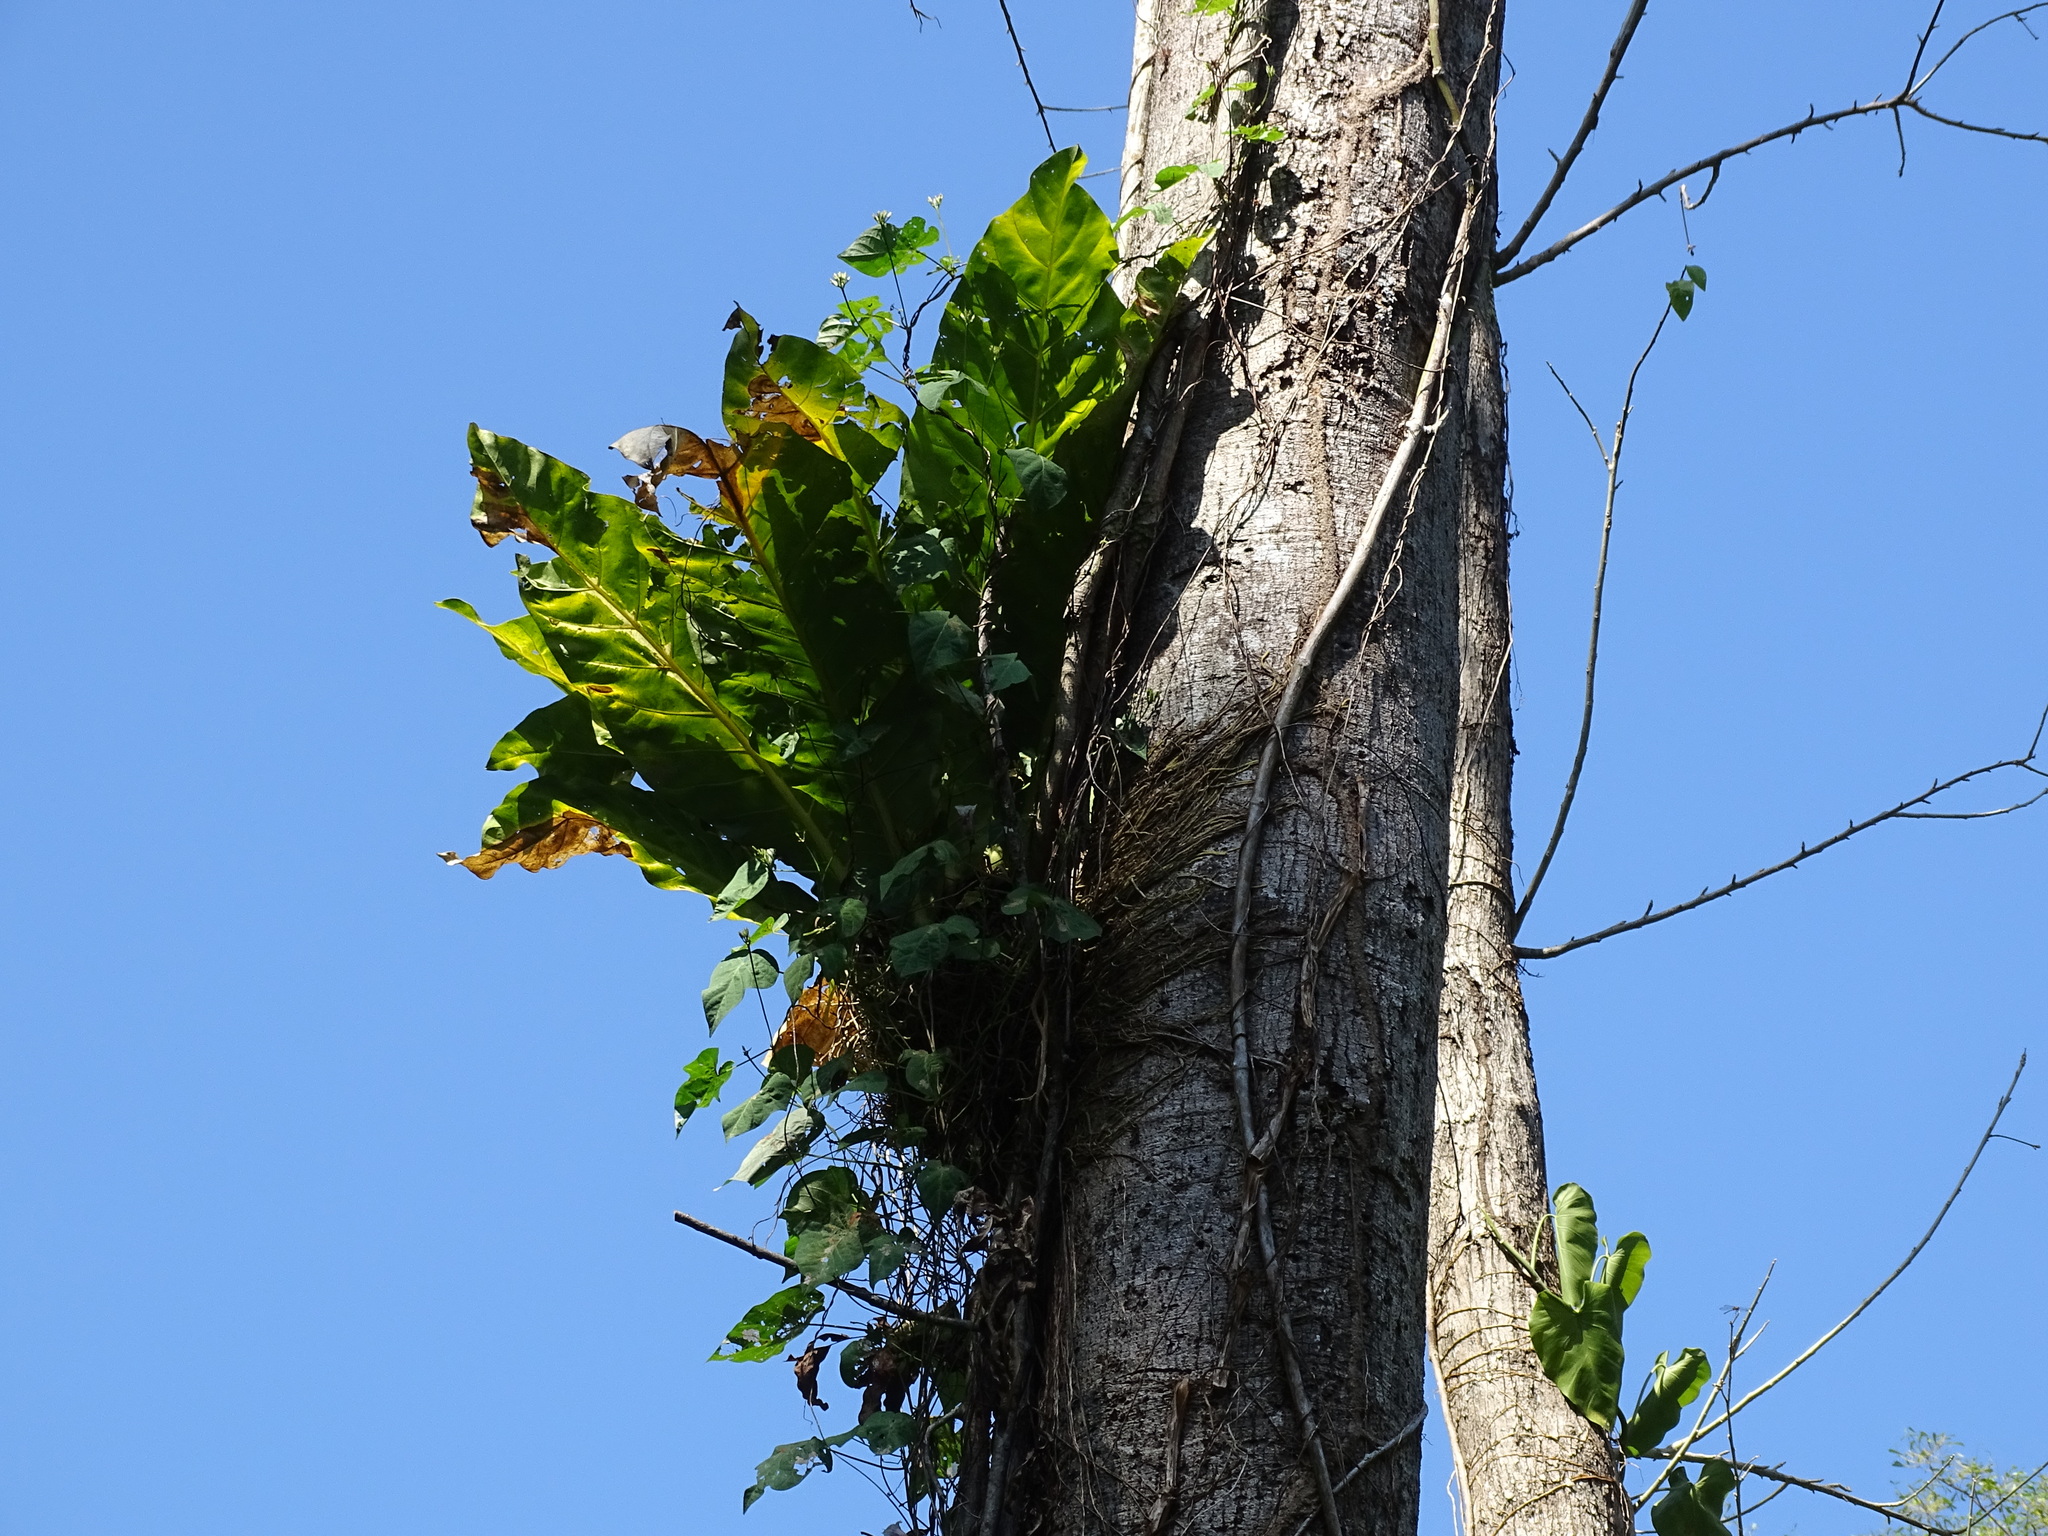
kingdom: Plantae
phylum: Tracheophyta
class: Liliopsida
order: Alismatales
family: Araceae
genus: Anthurium
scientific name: Anthurium salvinii
